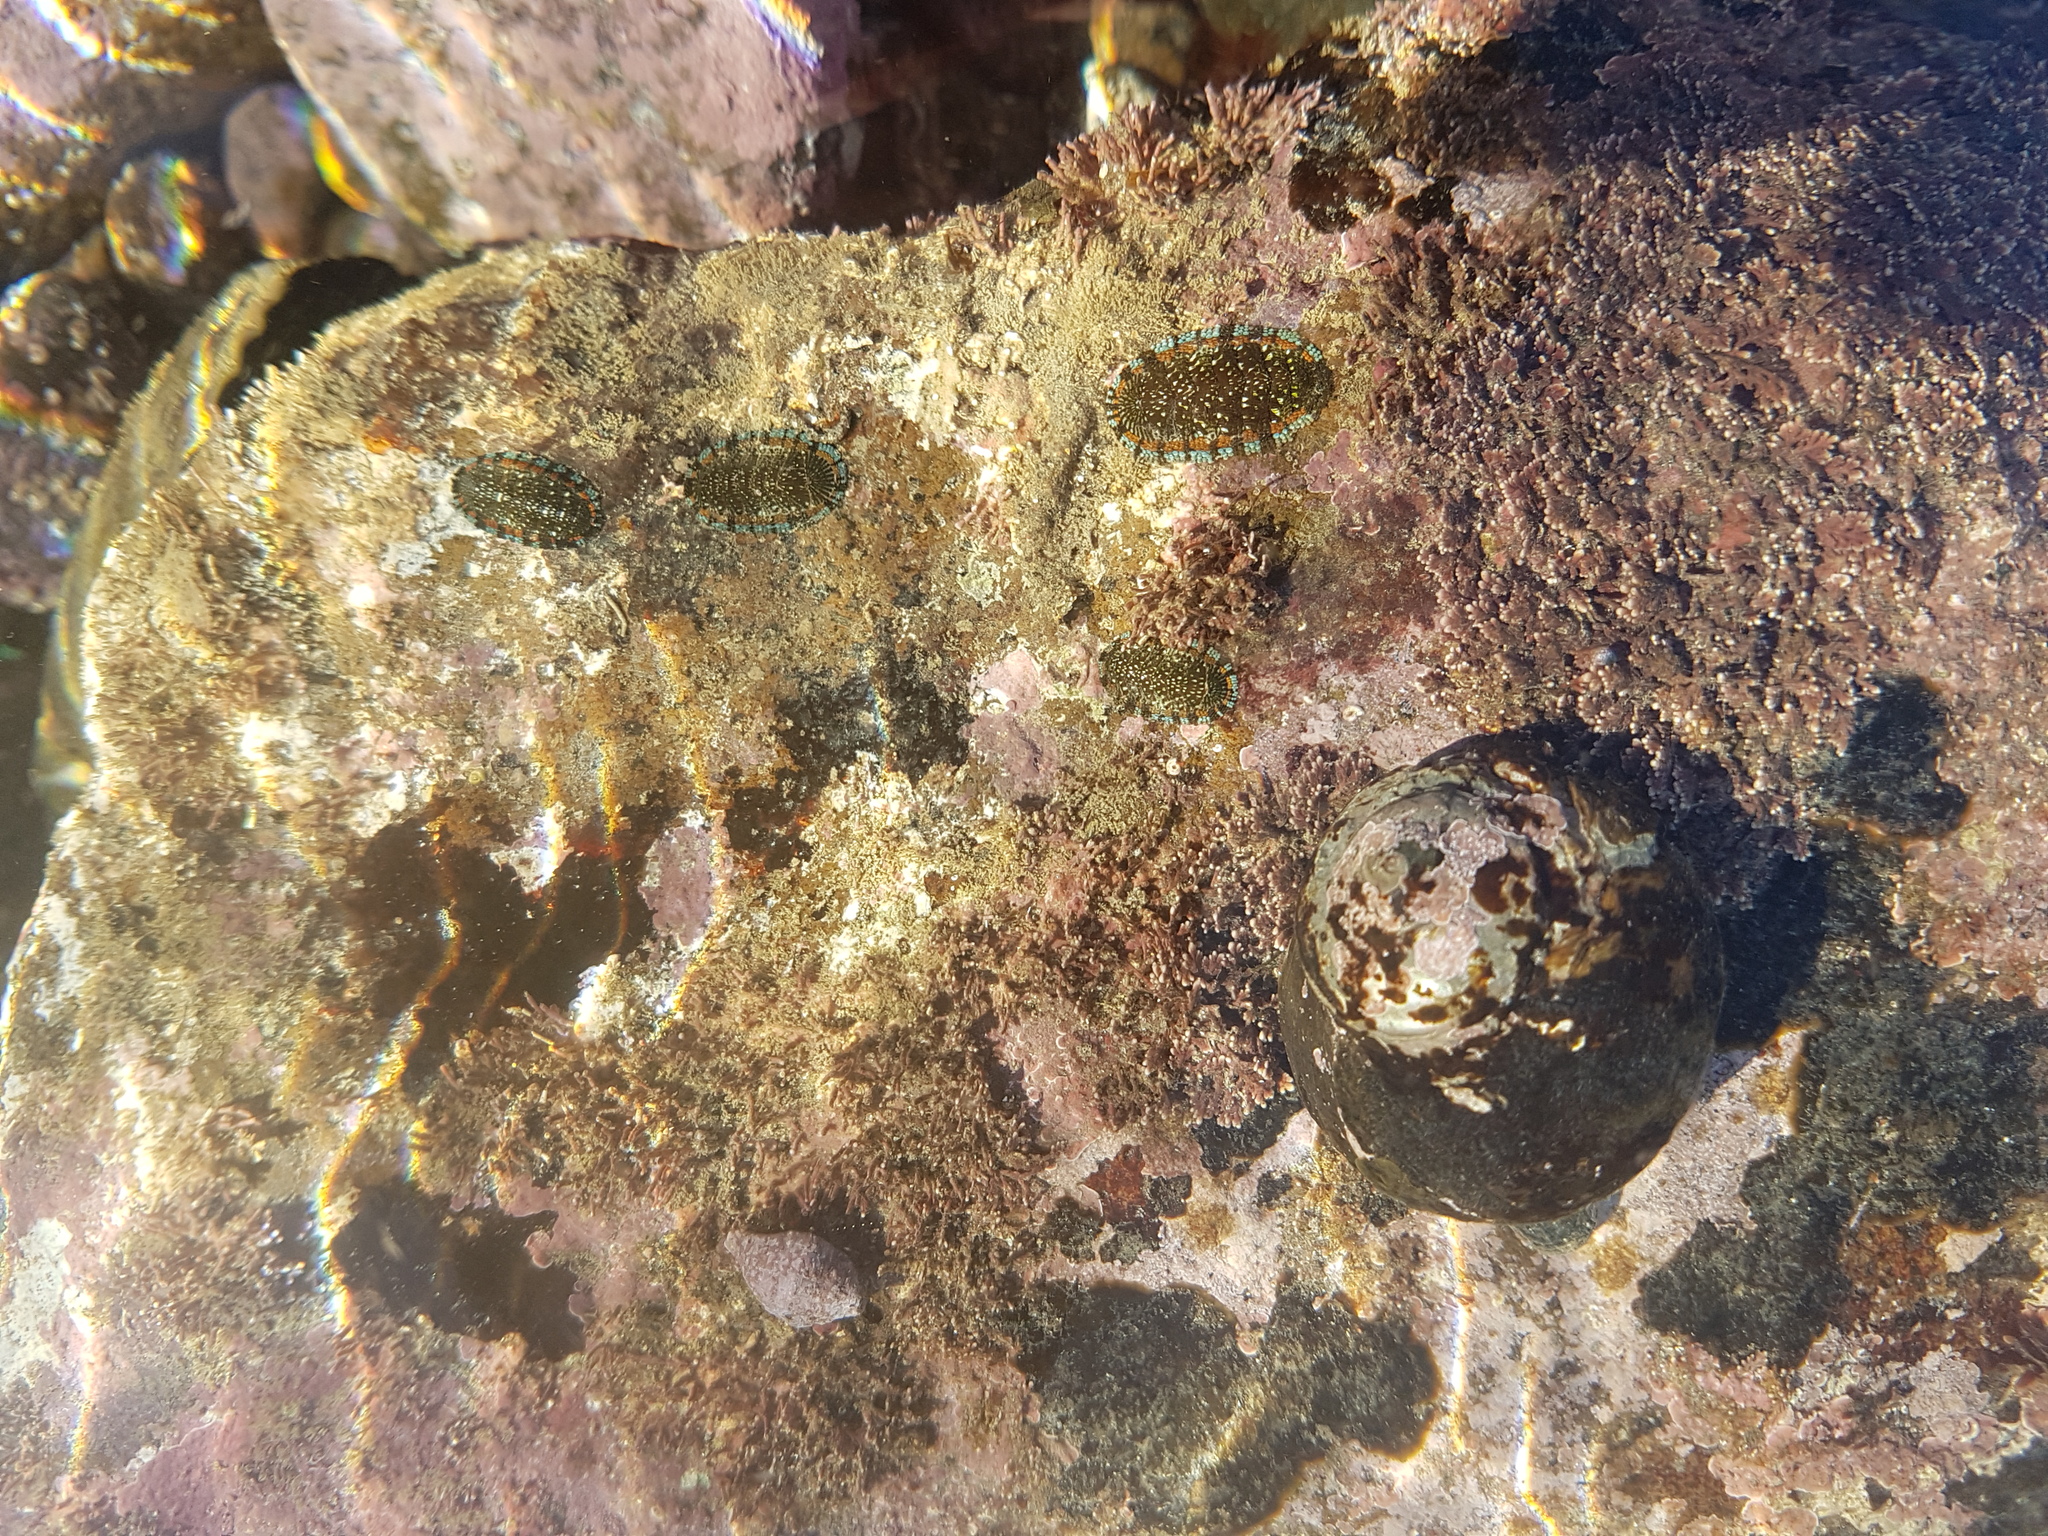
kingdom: Animalia
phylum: Mollusca
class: Polyplacophora
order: Chitonida
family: Chitonidae
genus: Sypharochiton
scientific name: Sypharochiton sinclairi
